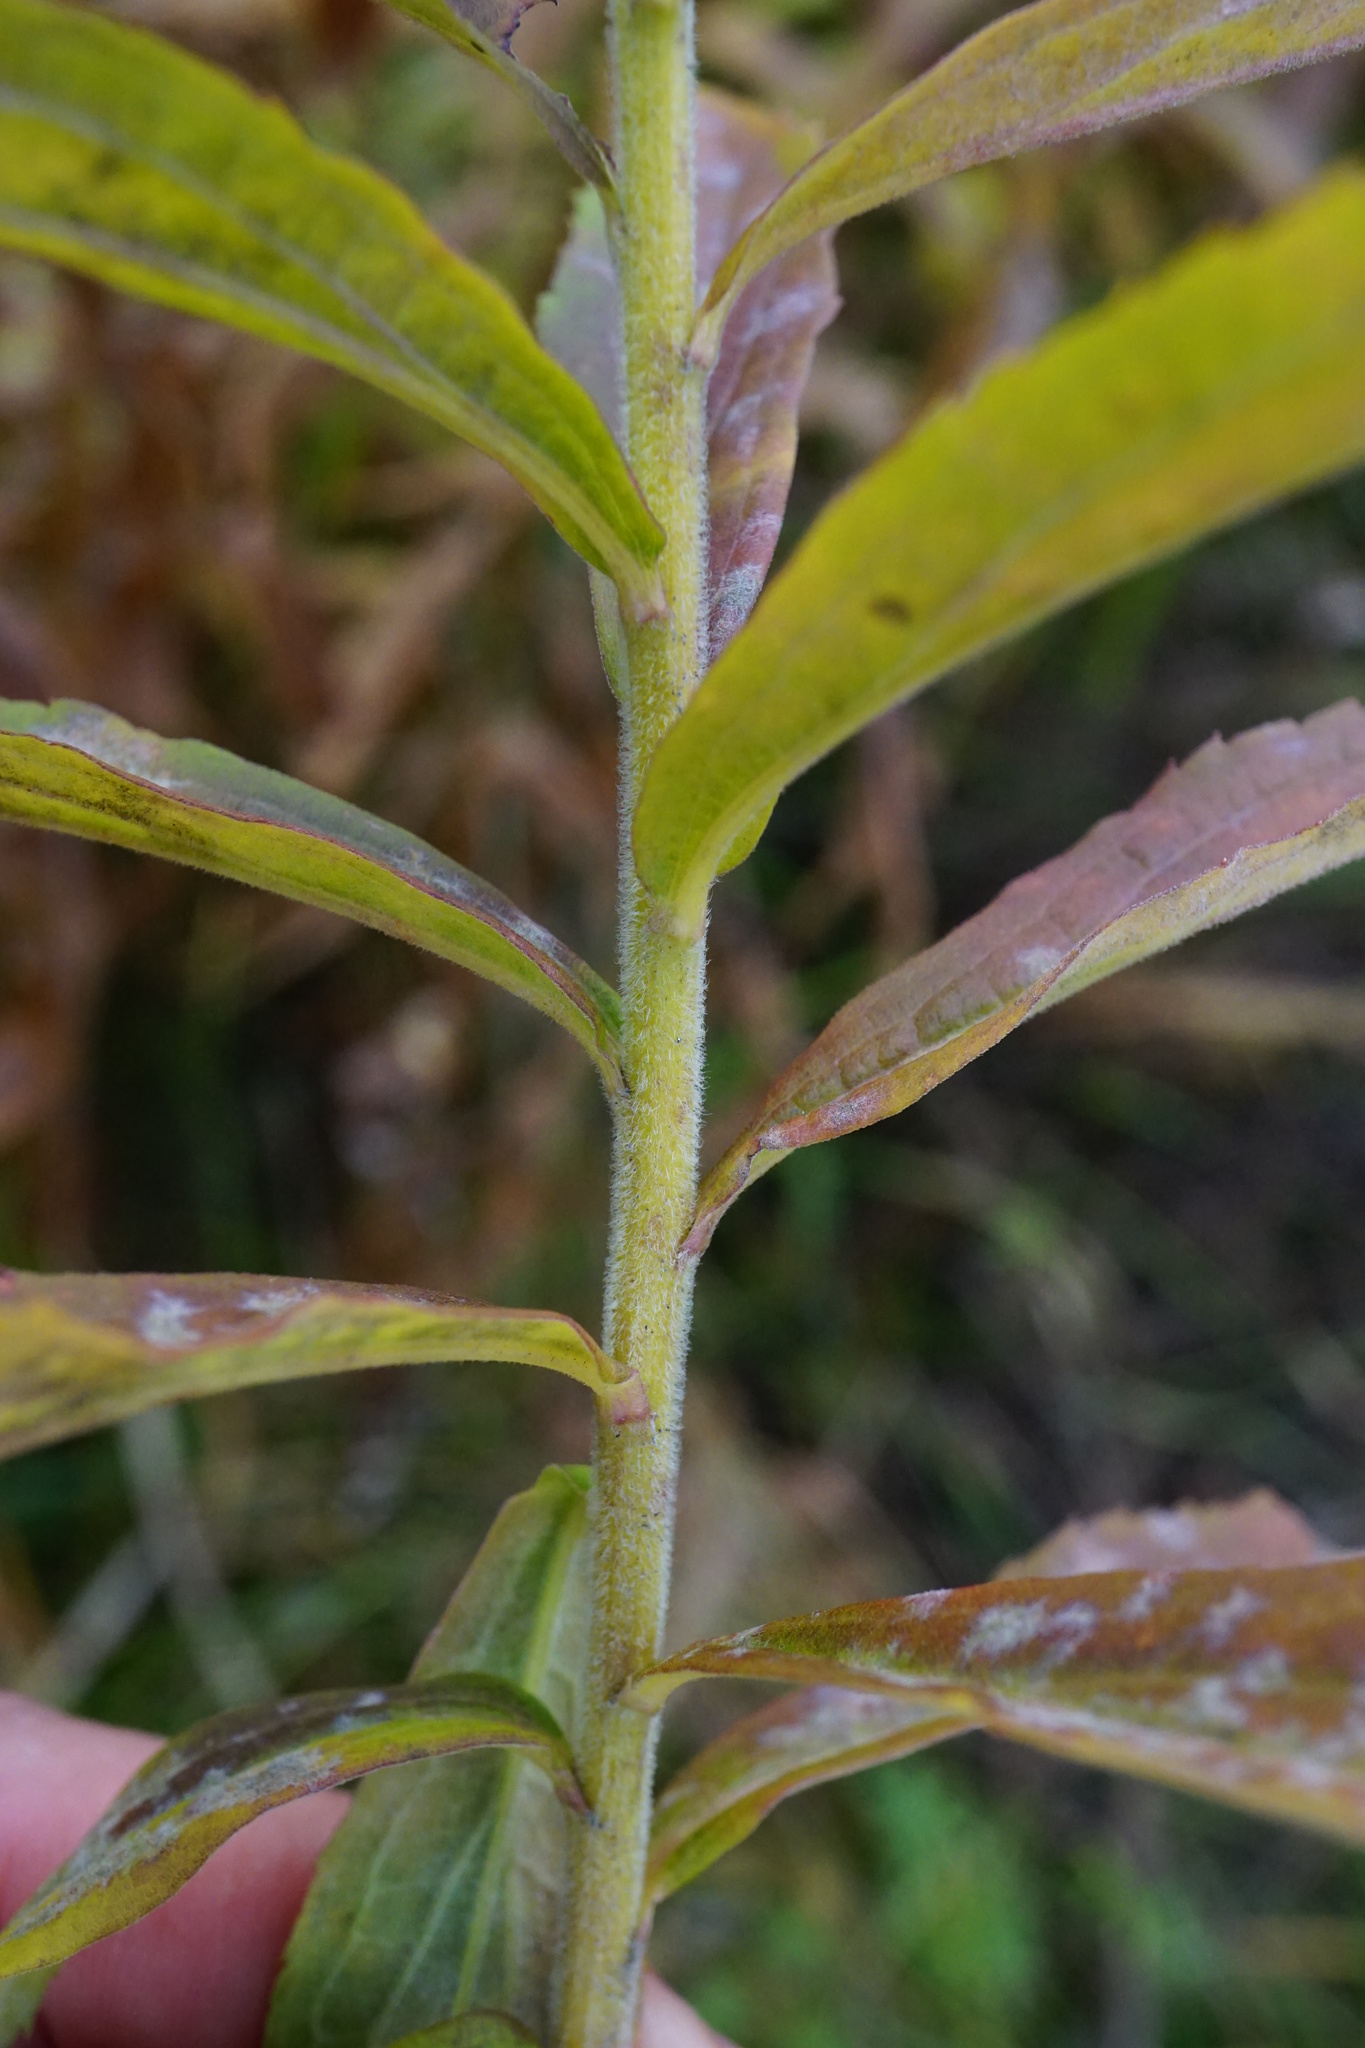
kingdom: Plantae
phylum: Tracheophyta
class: Magnoliopsida
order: Asterales
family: Asteraceae
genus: Solidago
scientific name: Solidago canadensis
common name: Canada goldenrod
